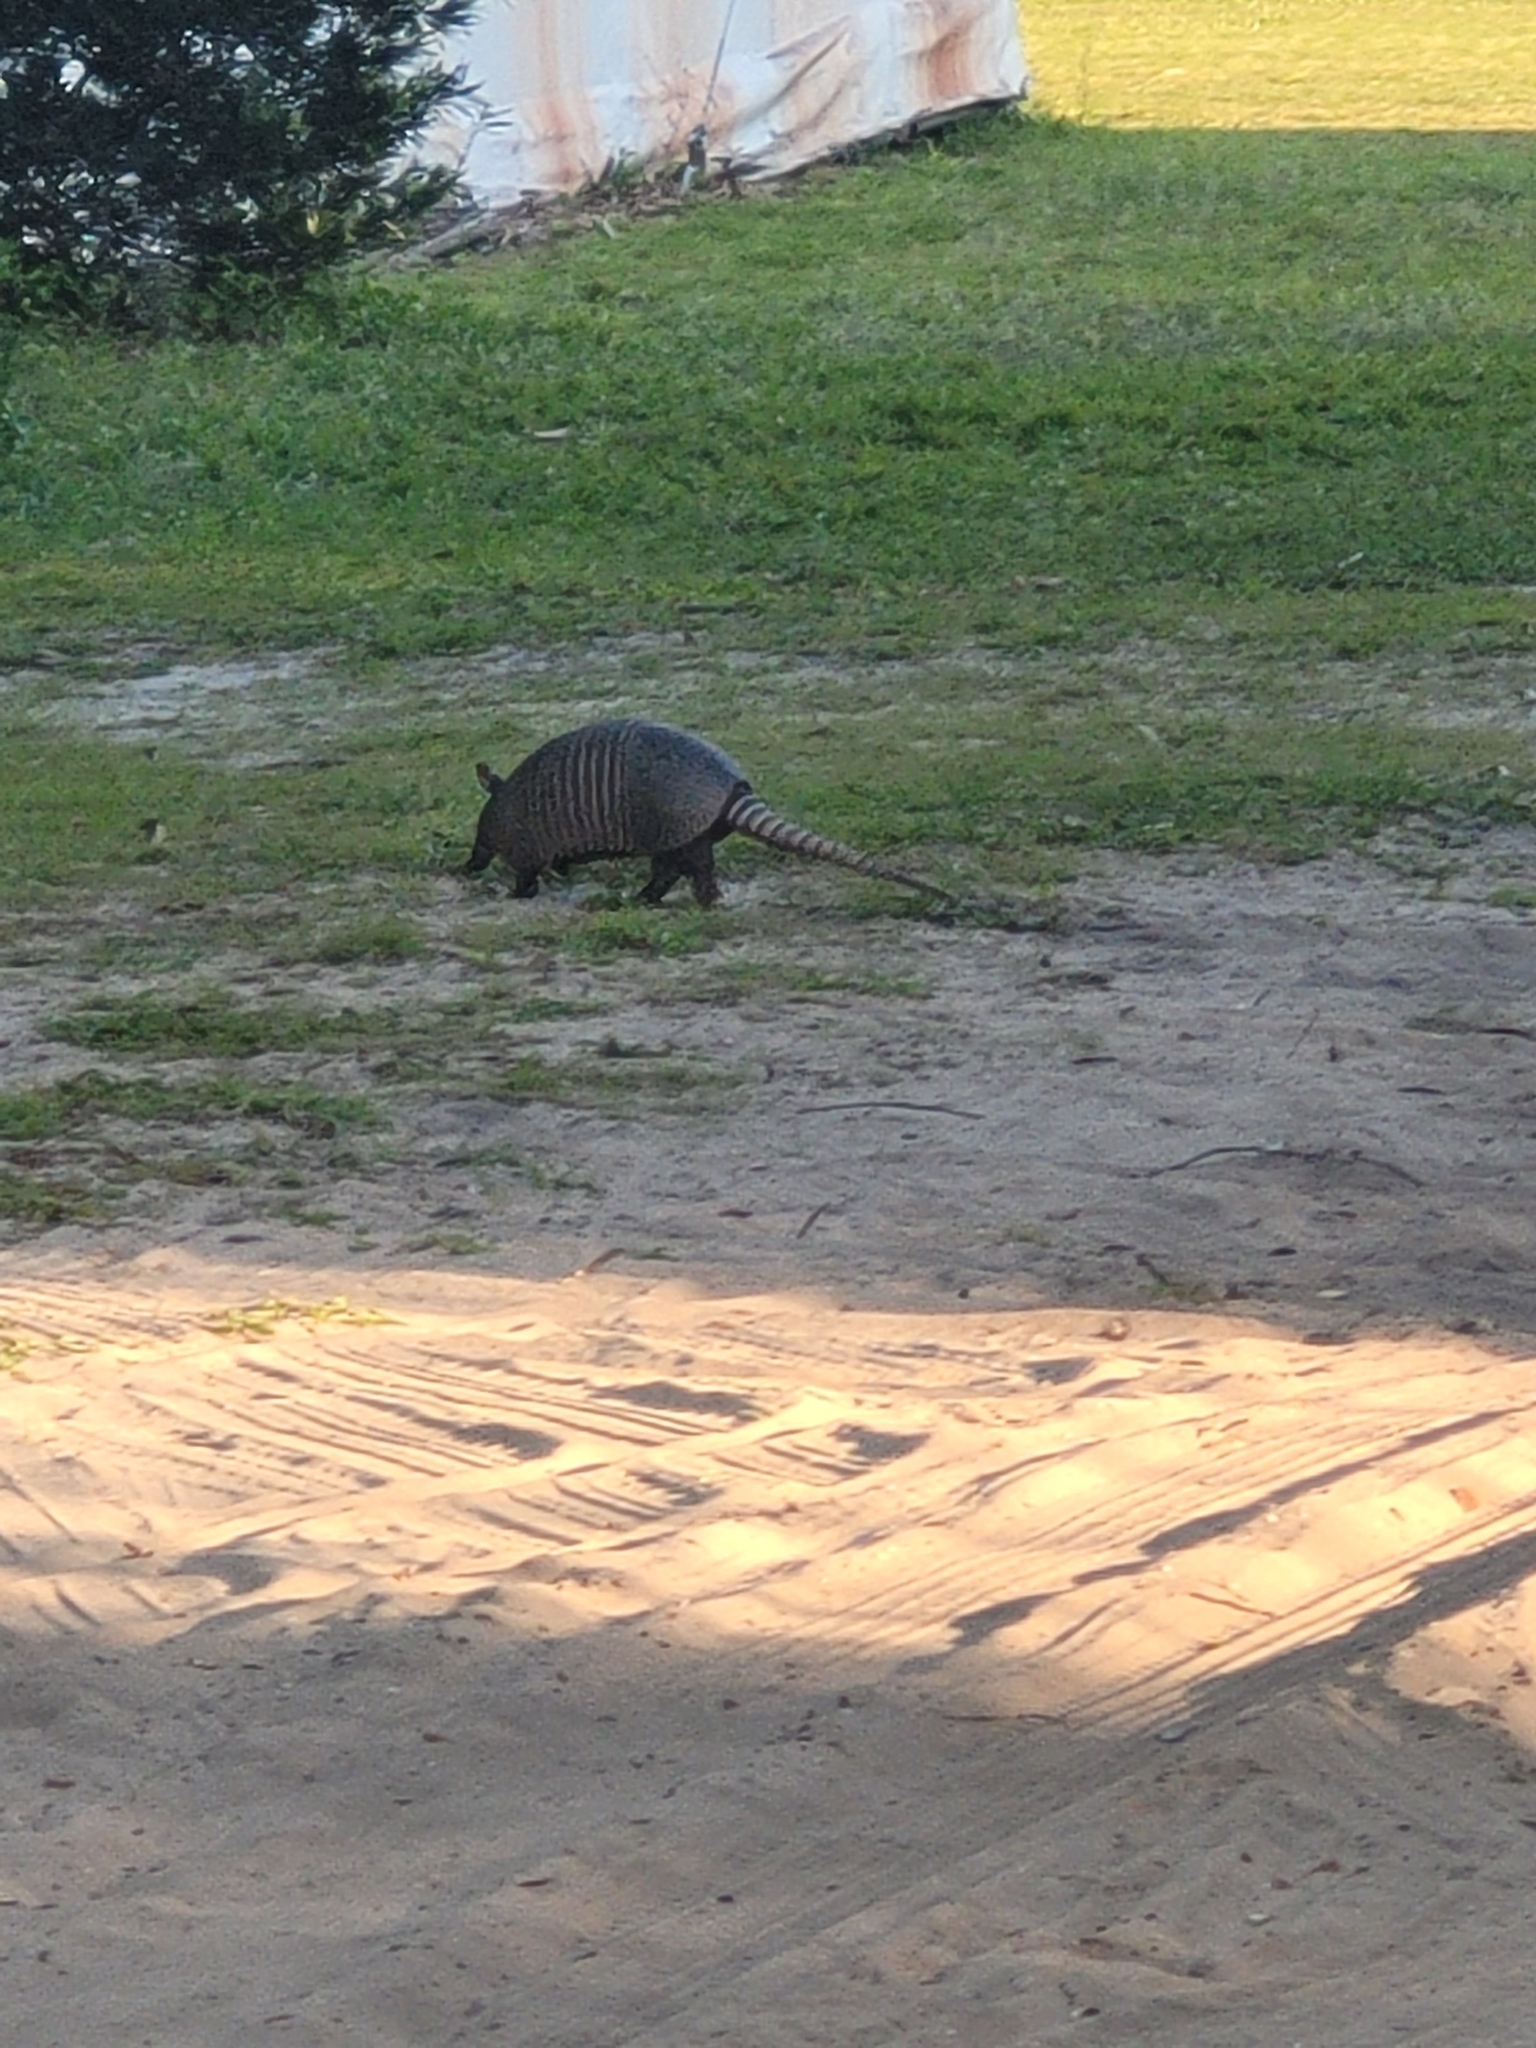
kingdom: Animalia
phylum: Chordata
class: Mammalia
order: Cingulata
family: Dasypodidae
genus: Dasypus
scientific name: Dasypus novemcinctus
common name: Nine-banded armadillo
